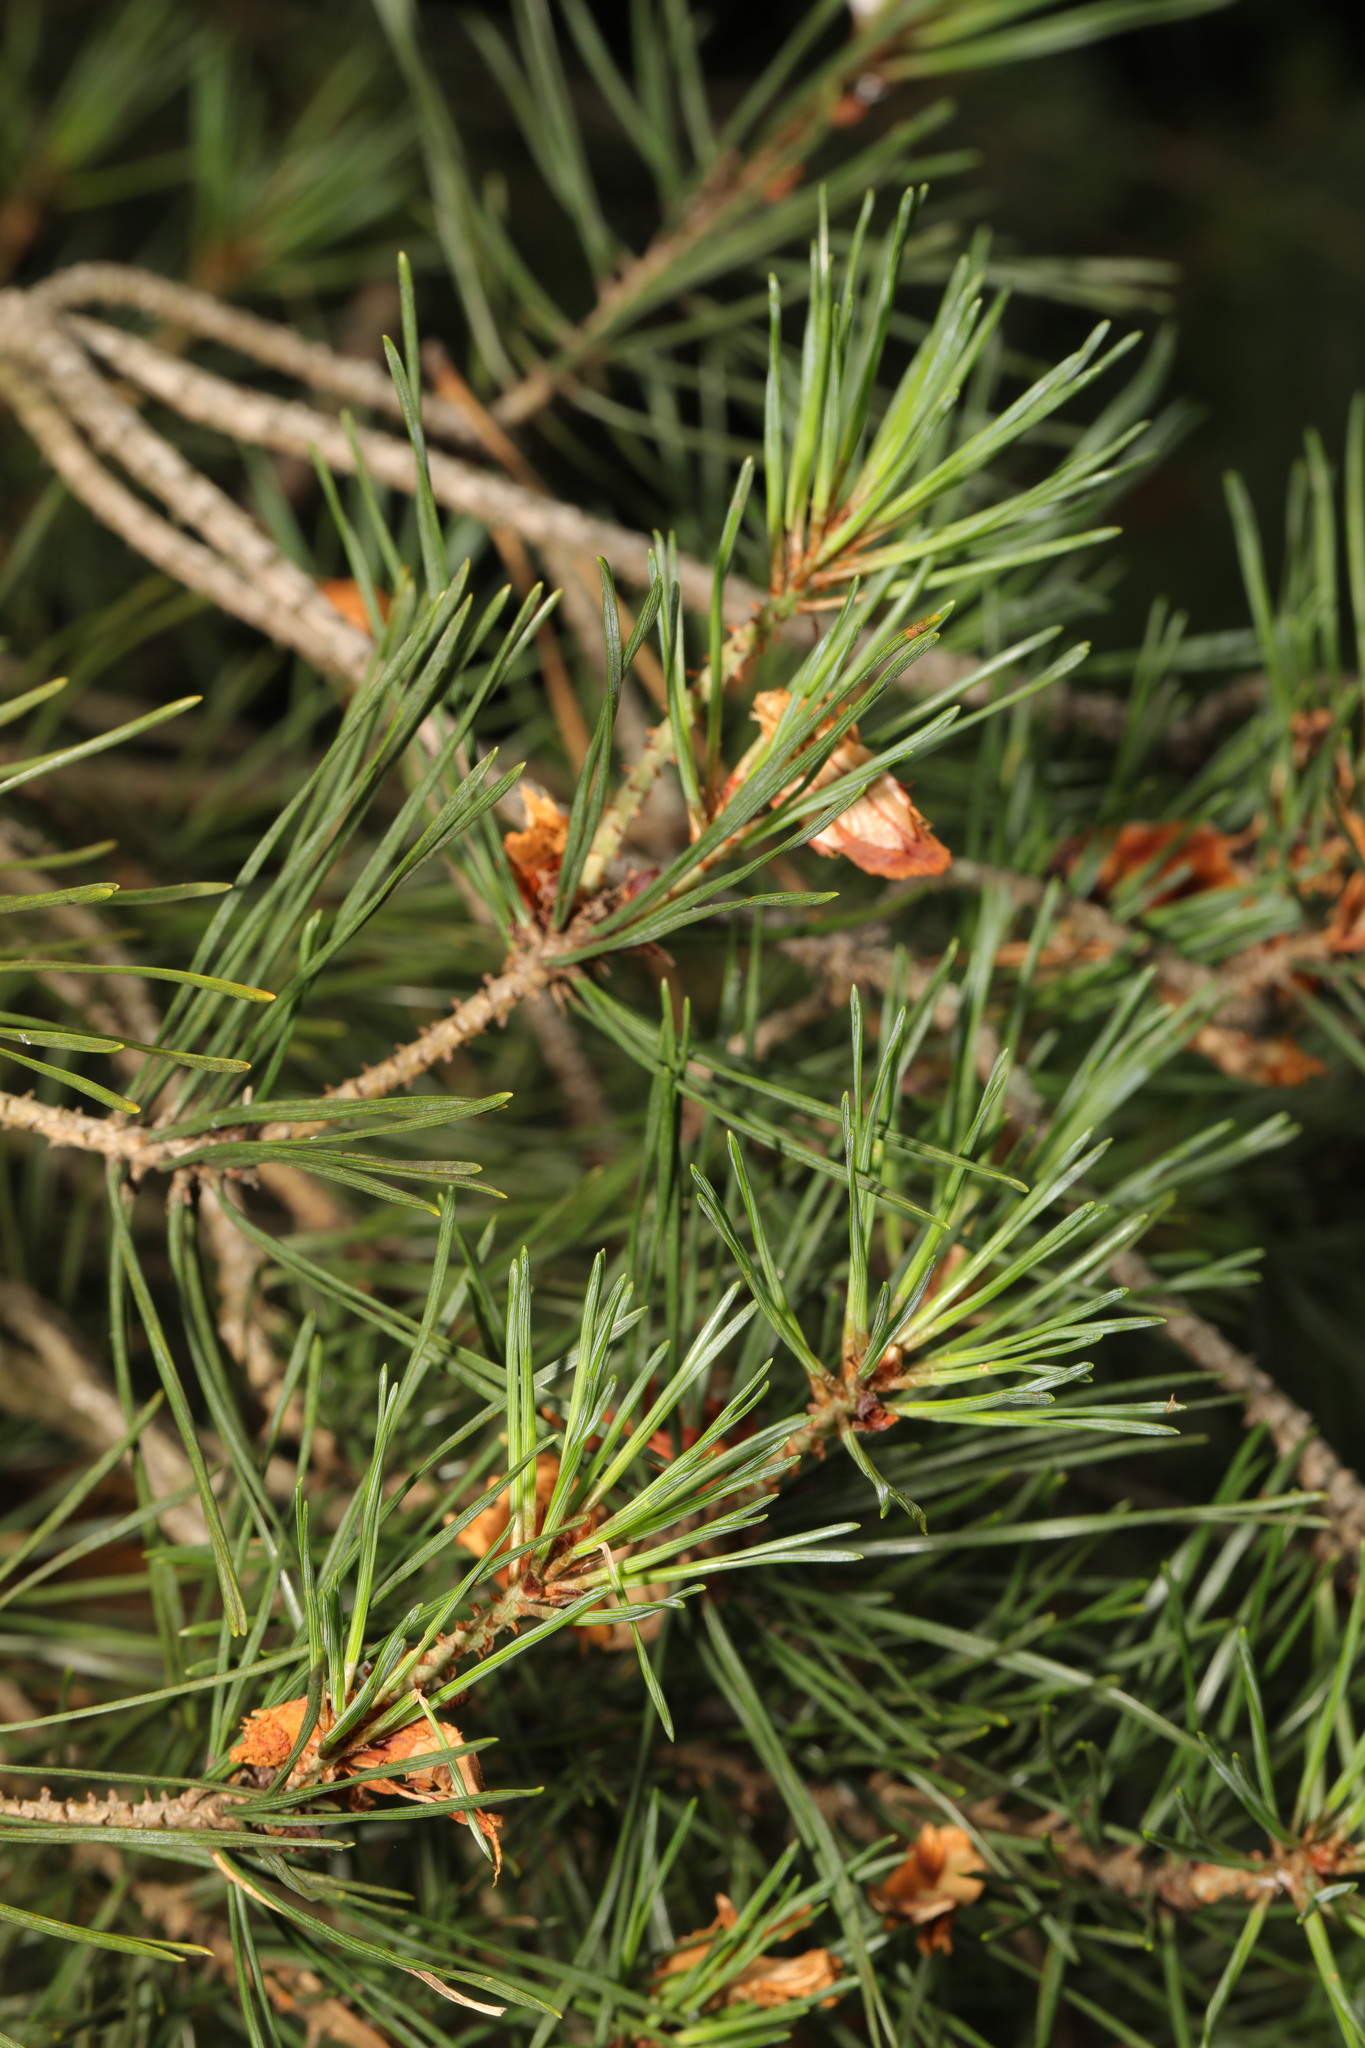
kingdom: Plantae
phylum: Tracheophyta
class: Pinopsida
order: Pinales
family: Pinaceae
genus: Pinus
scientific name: Pinus sylvestris
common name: Scots pine
